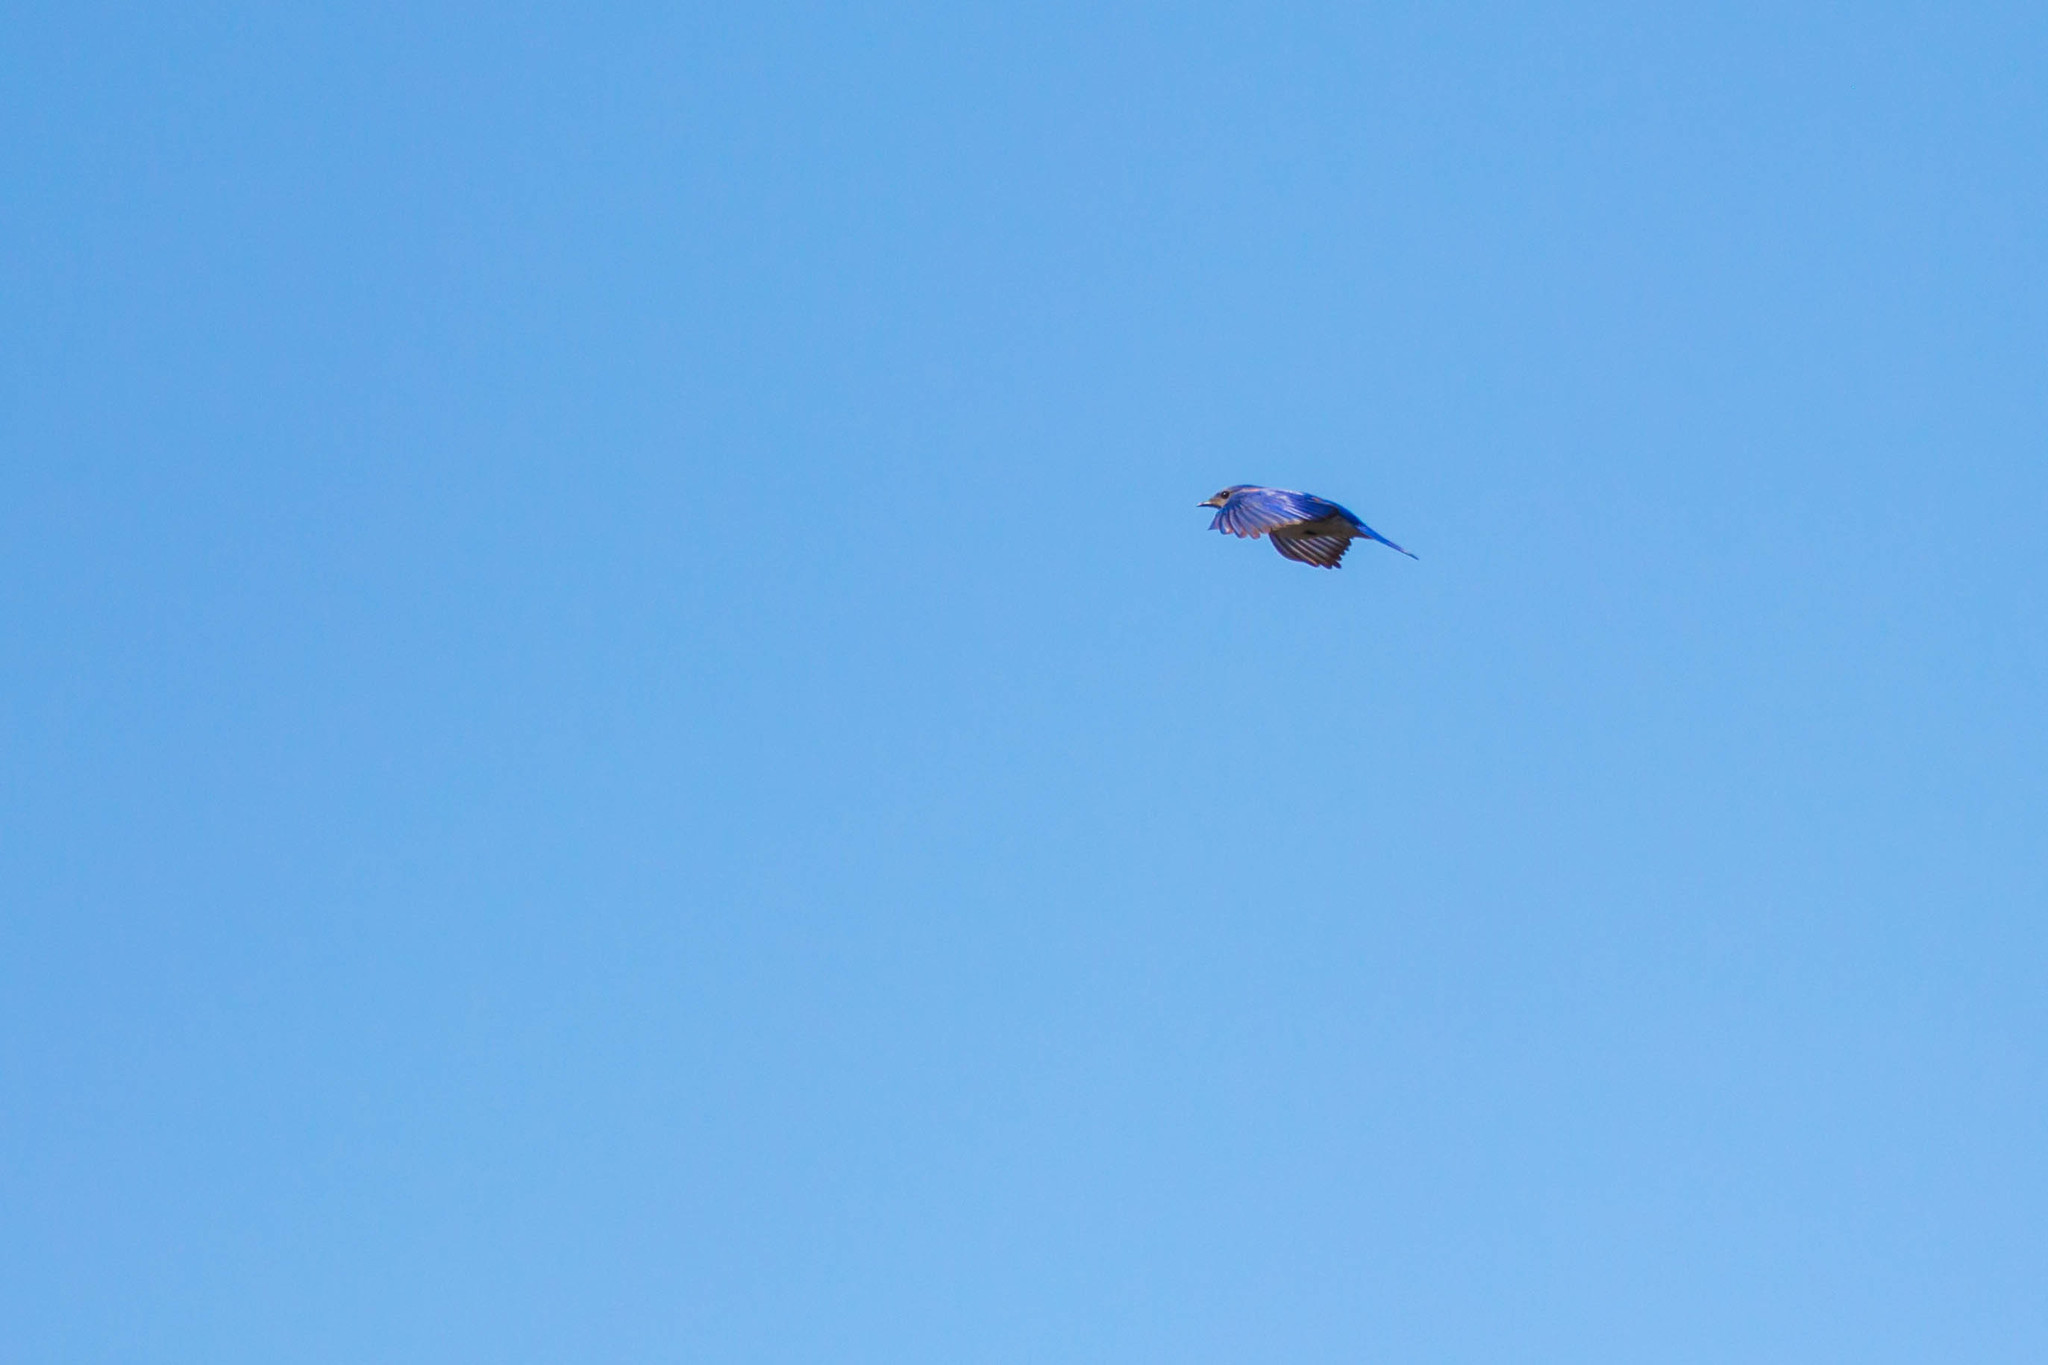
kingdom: Animalia
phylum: Chordata
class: Aves
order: Passeriformes
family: Turdidae
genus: Sialia
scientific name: Sialia sialis
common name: Eastern bluebird
